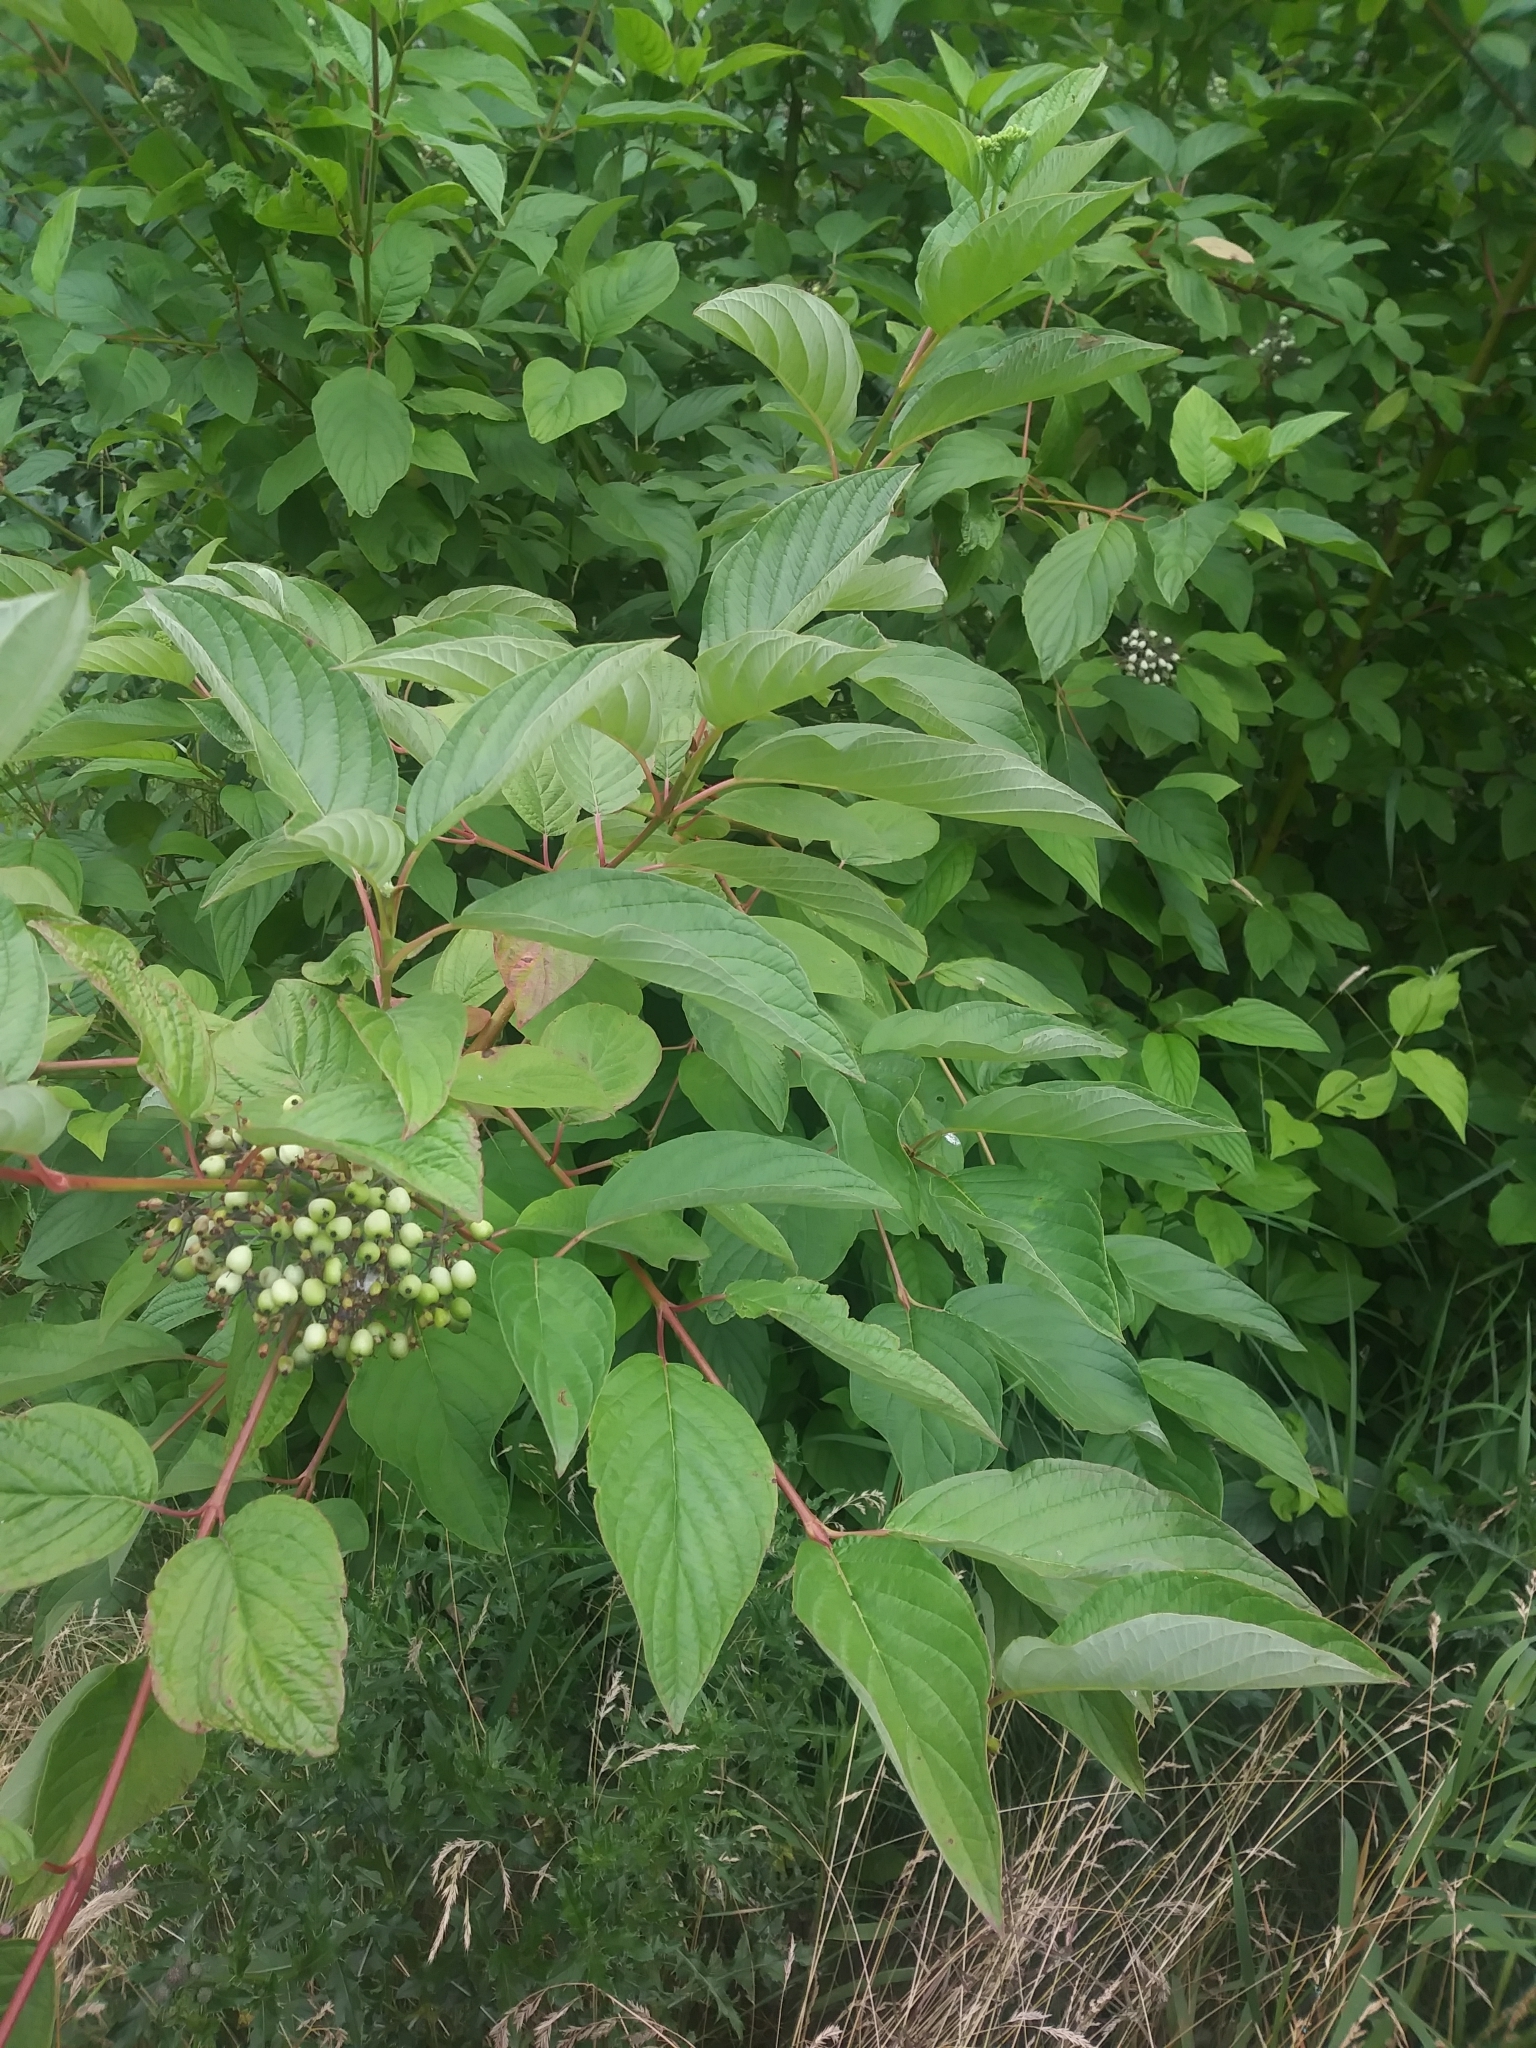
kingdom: Plantae
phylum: Tracheophyta
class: Magnoliopsida
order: Cornales
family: Cornaceae
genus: Cornus
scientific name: Cornus sericea
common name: Red-osier dogwood
